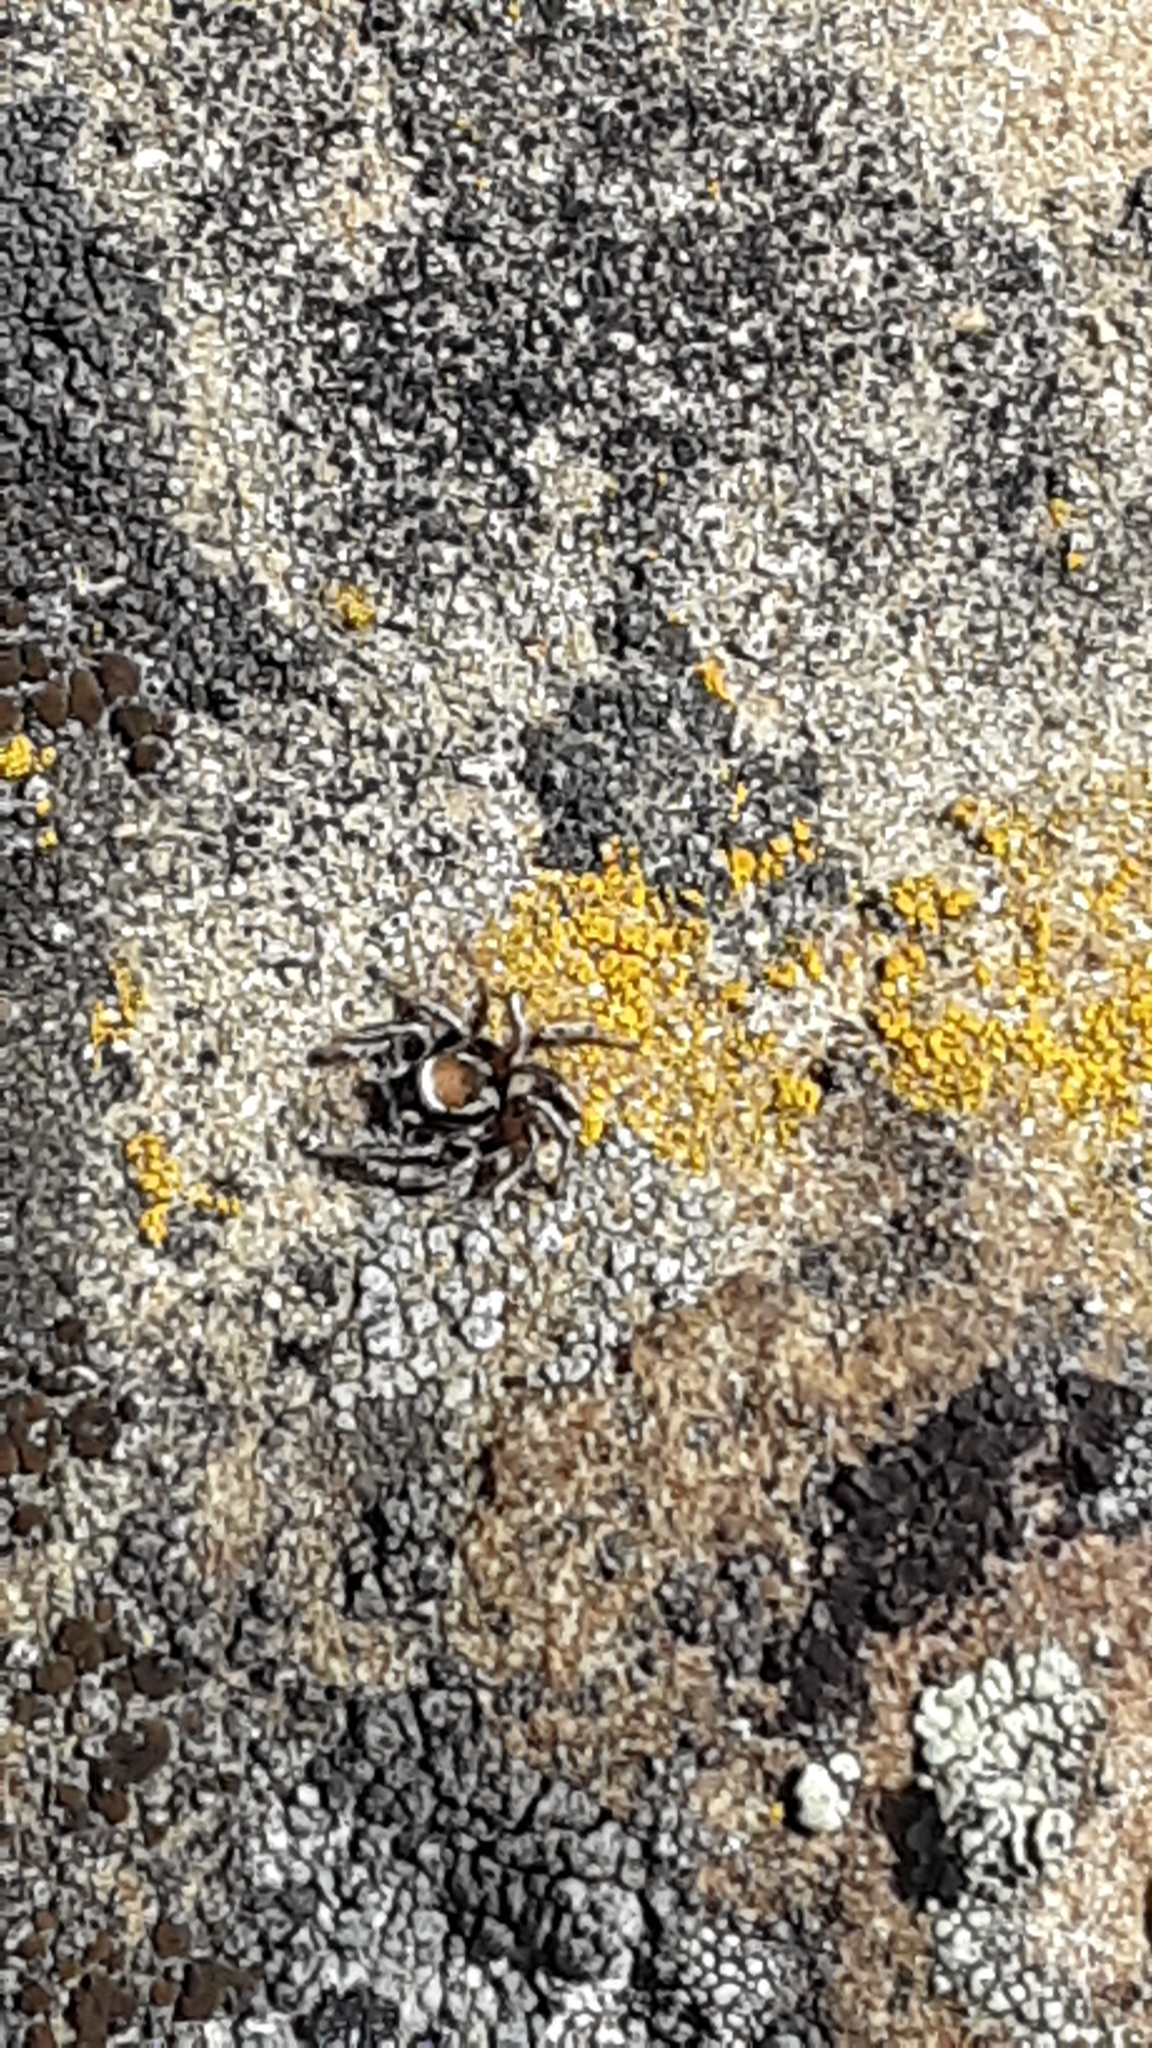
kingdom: Animalia
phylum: Arthropoda
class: Arachnida
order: Araneae
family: Salticidae
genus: Habronattus
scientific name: Habronattus clypeatus
